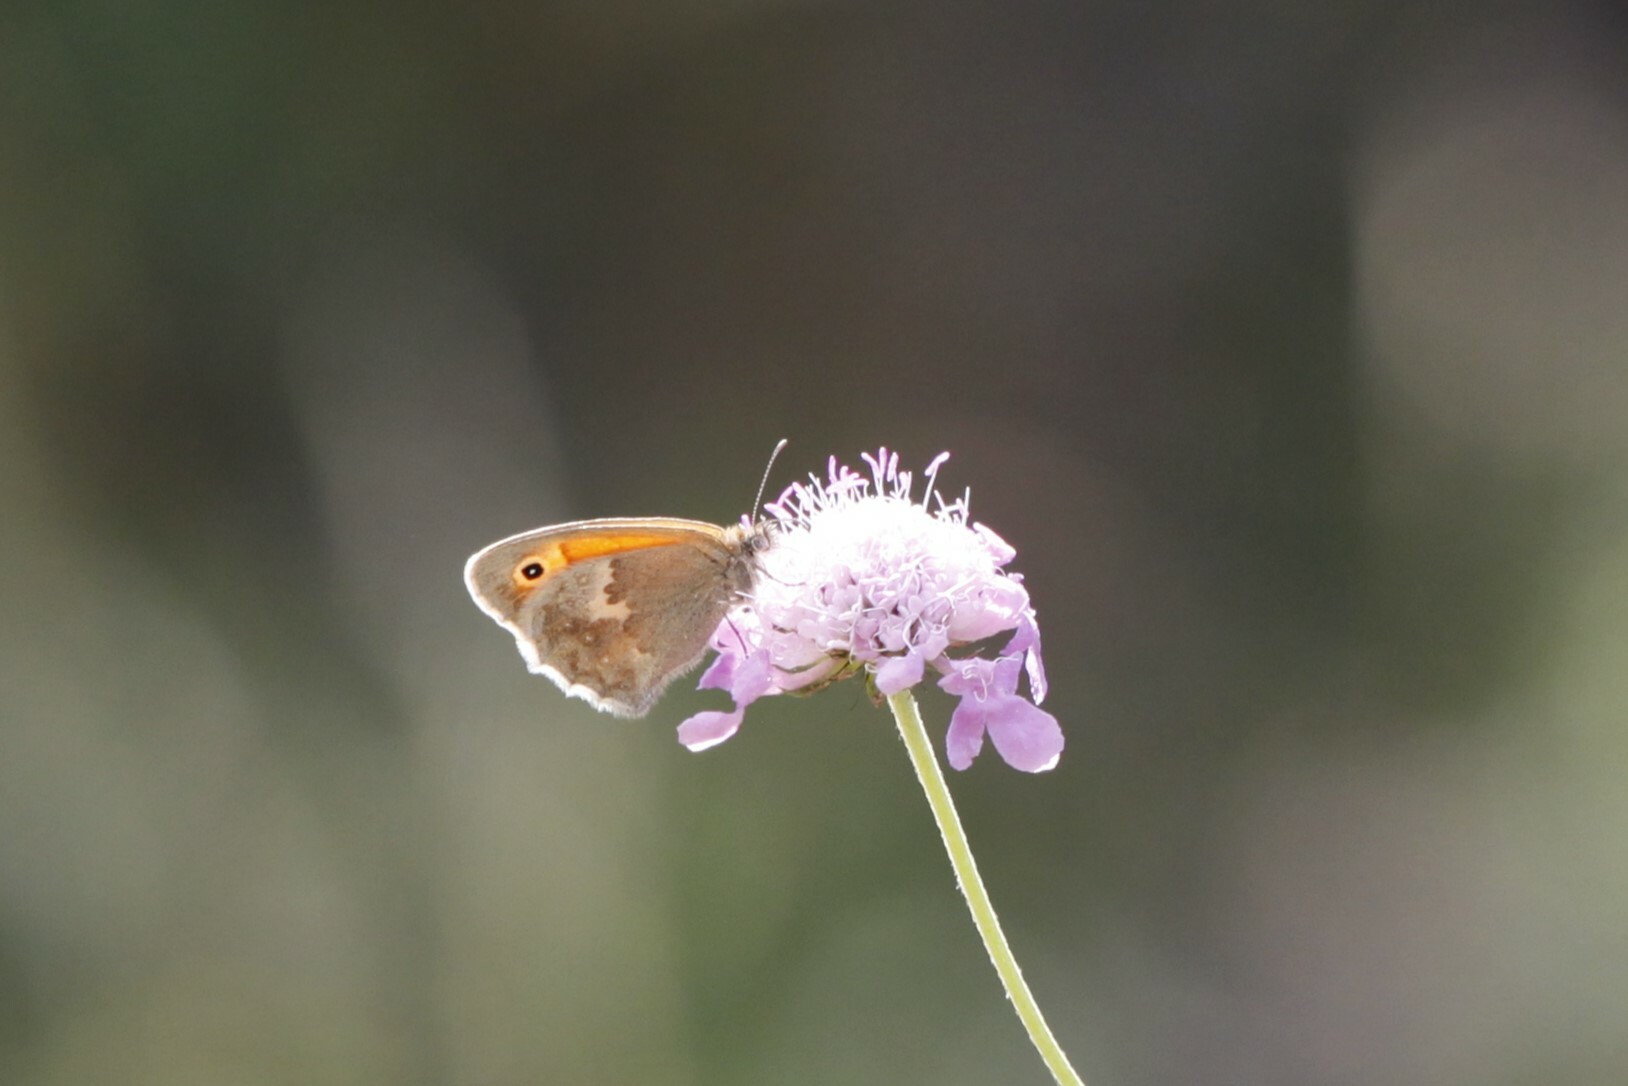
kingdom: Animalia
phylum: Arthropoda
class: Insecta
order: Lepidoptera
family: Nymphalidae
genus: Coenonympha
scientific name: Coenonympha pamphilus
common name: Small heath
